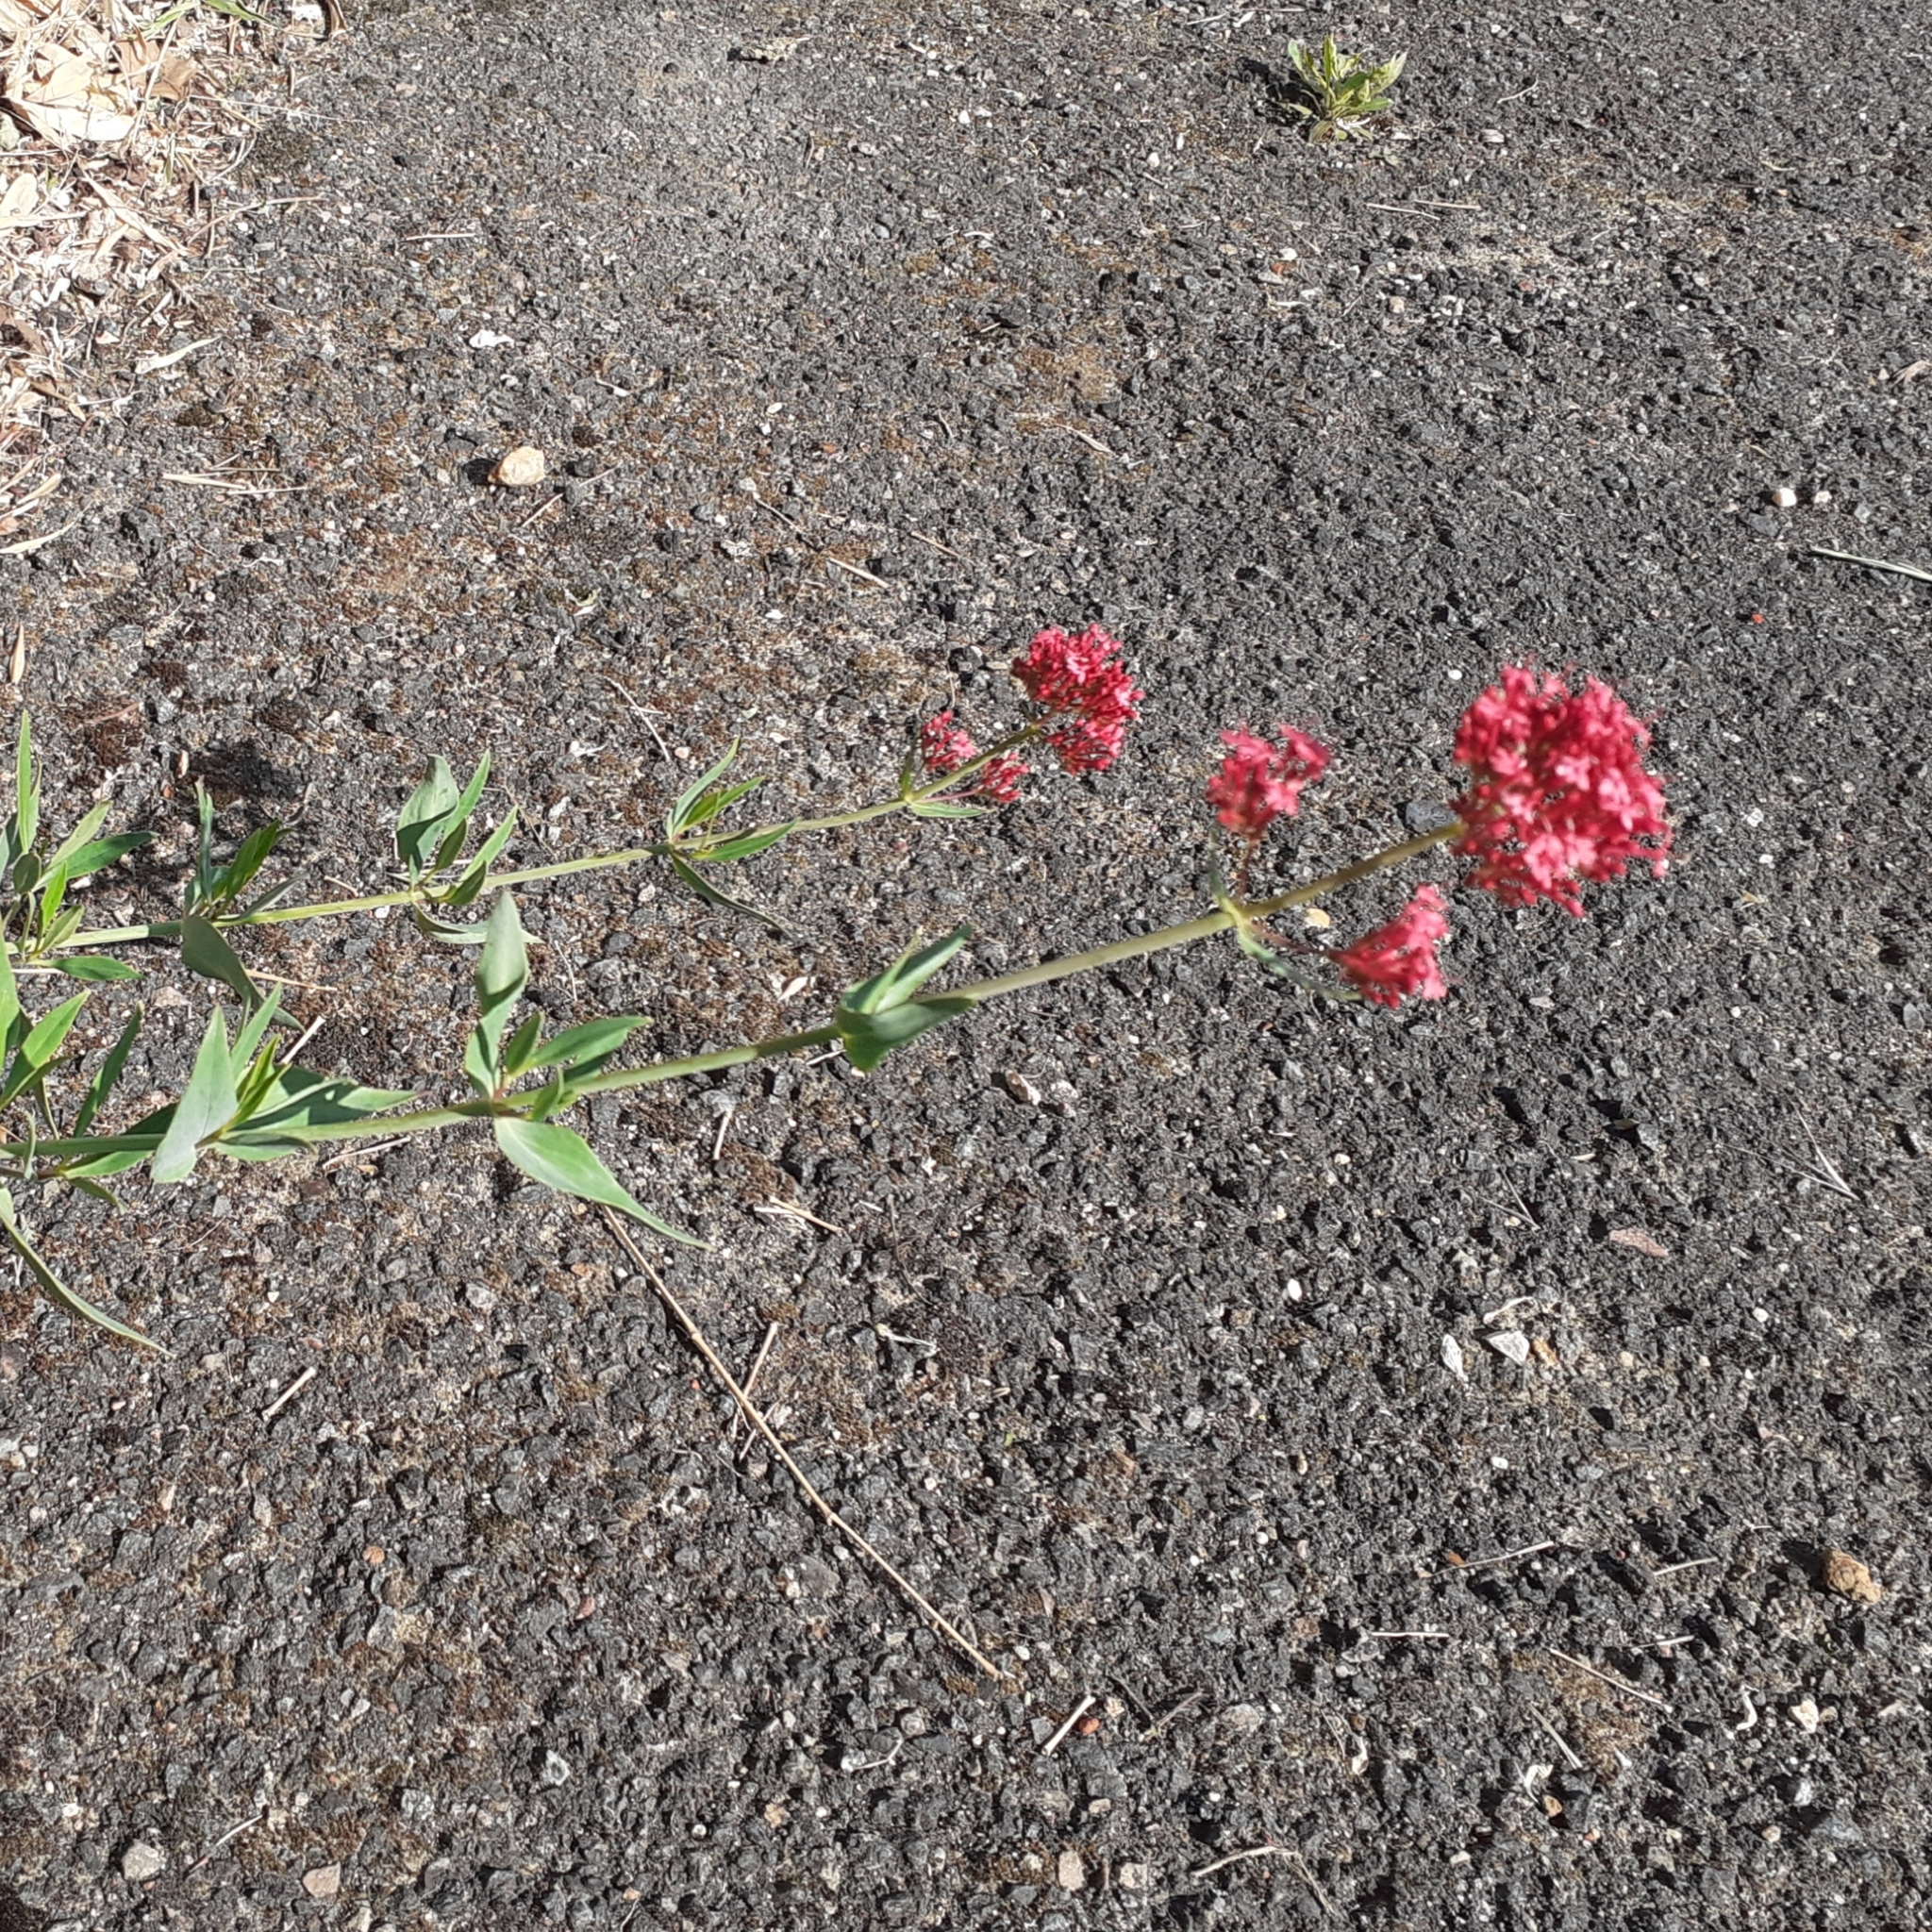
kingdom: Plantae
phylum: Tracheophyta
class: Magnoliopsida
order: Dipsacales
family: Caprifoliaceae
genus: Centranthus
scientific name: Centranthus ruber
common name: Red valerian
